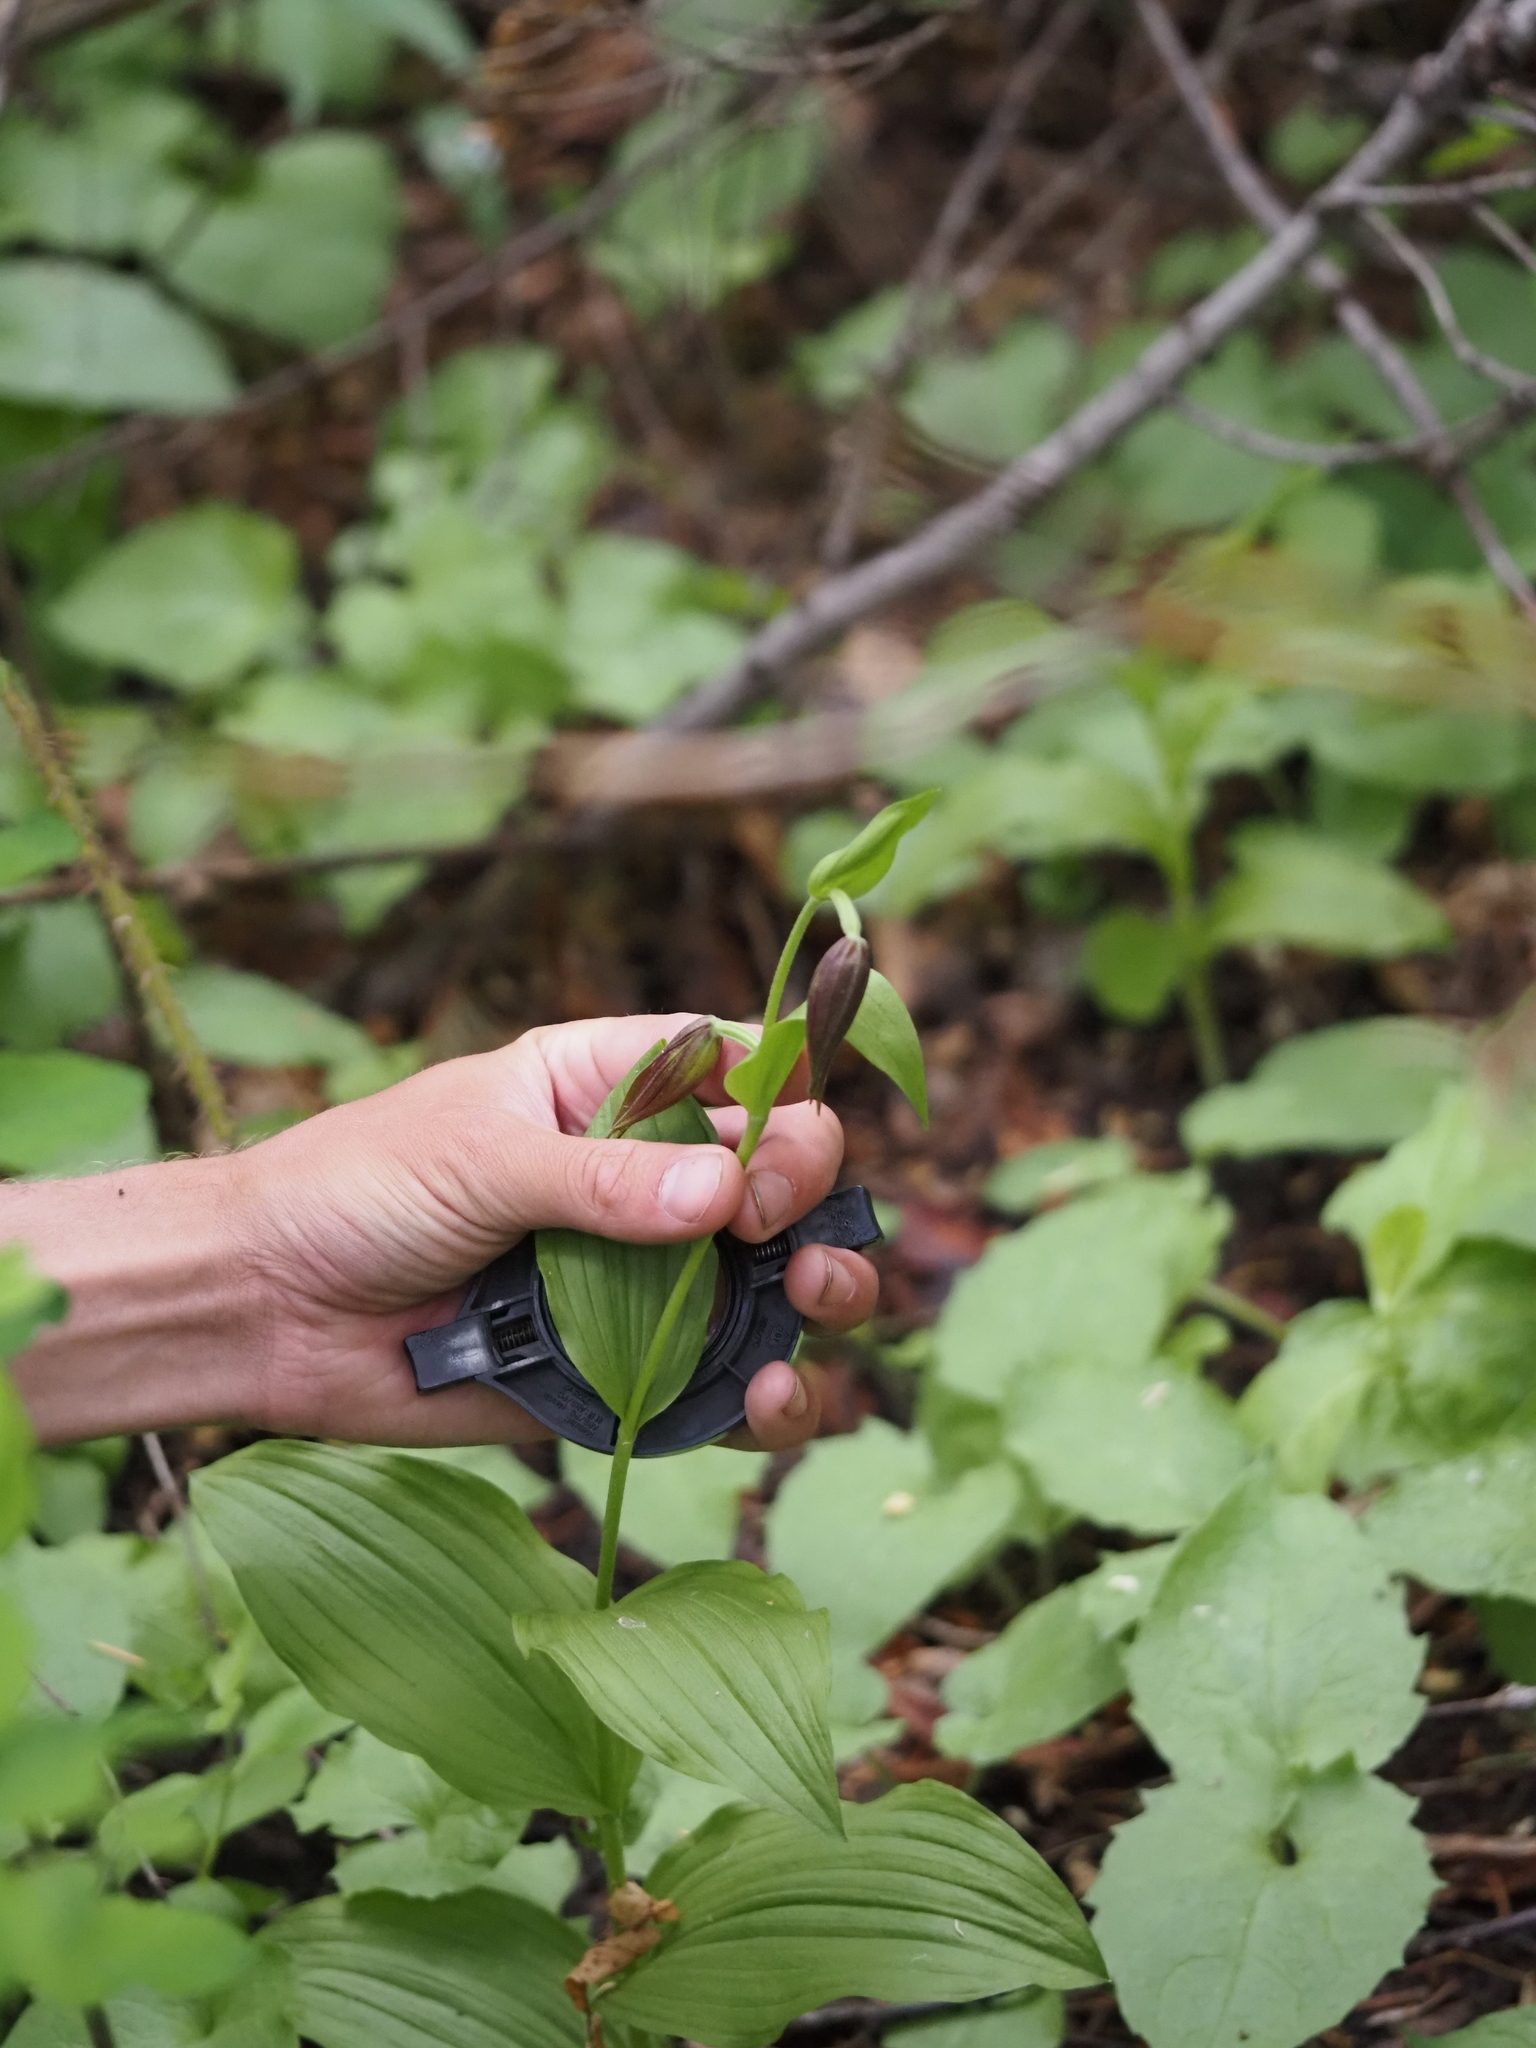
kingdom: Plantae
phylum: Tracheophyta
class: Liliopsida
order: Asparagales
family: Orchidaceae
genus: Cypripedium
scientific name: Cypripedium montanum
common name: Mountain lady's-slipper
